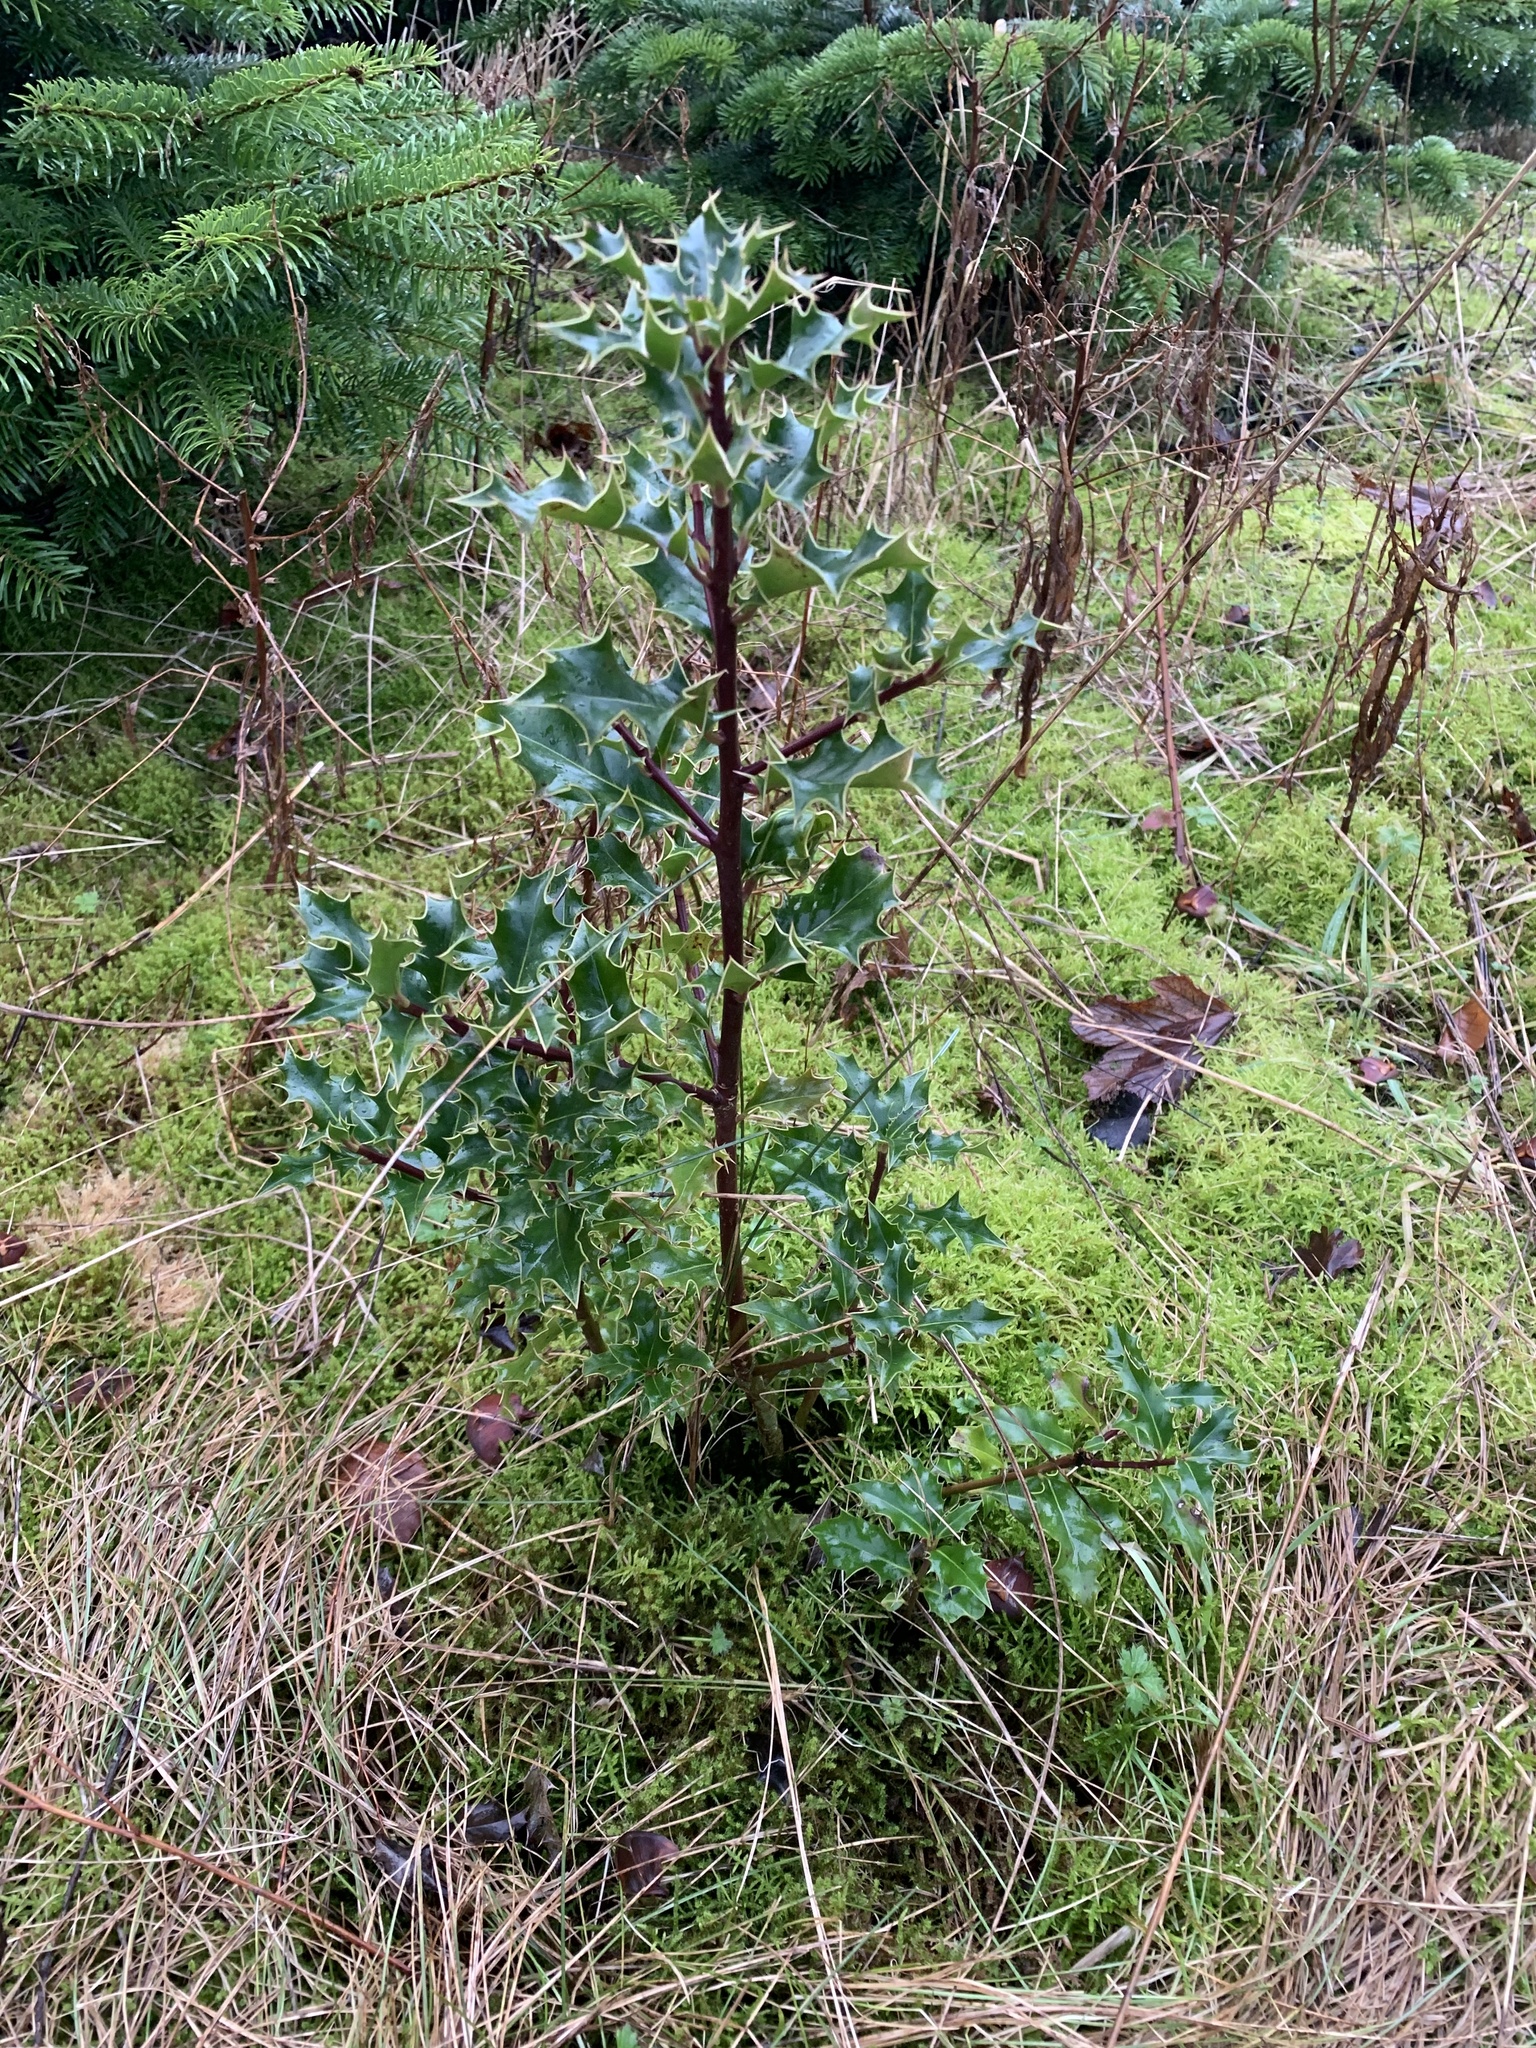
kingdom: Plantae
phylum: Tracheophyta
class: Magnoliopsida
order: Aquifoliales
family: Aquifoliaceae
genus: Ilex
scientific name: Ilex aquifolium
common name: English holly
